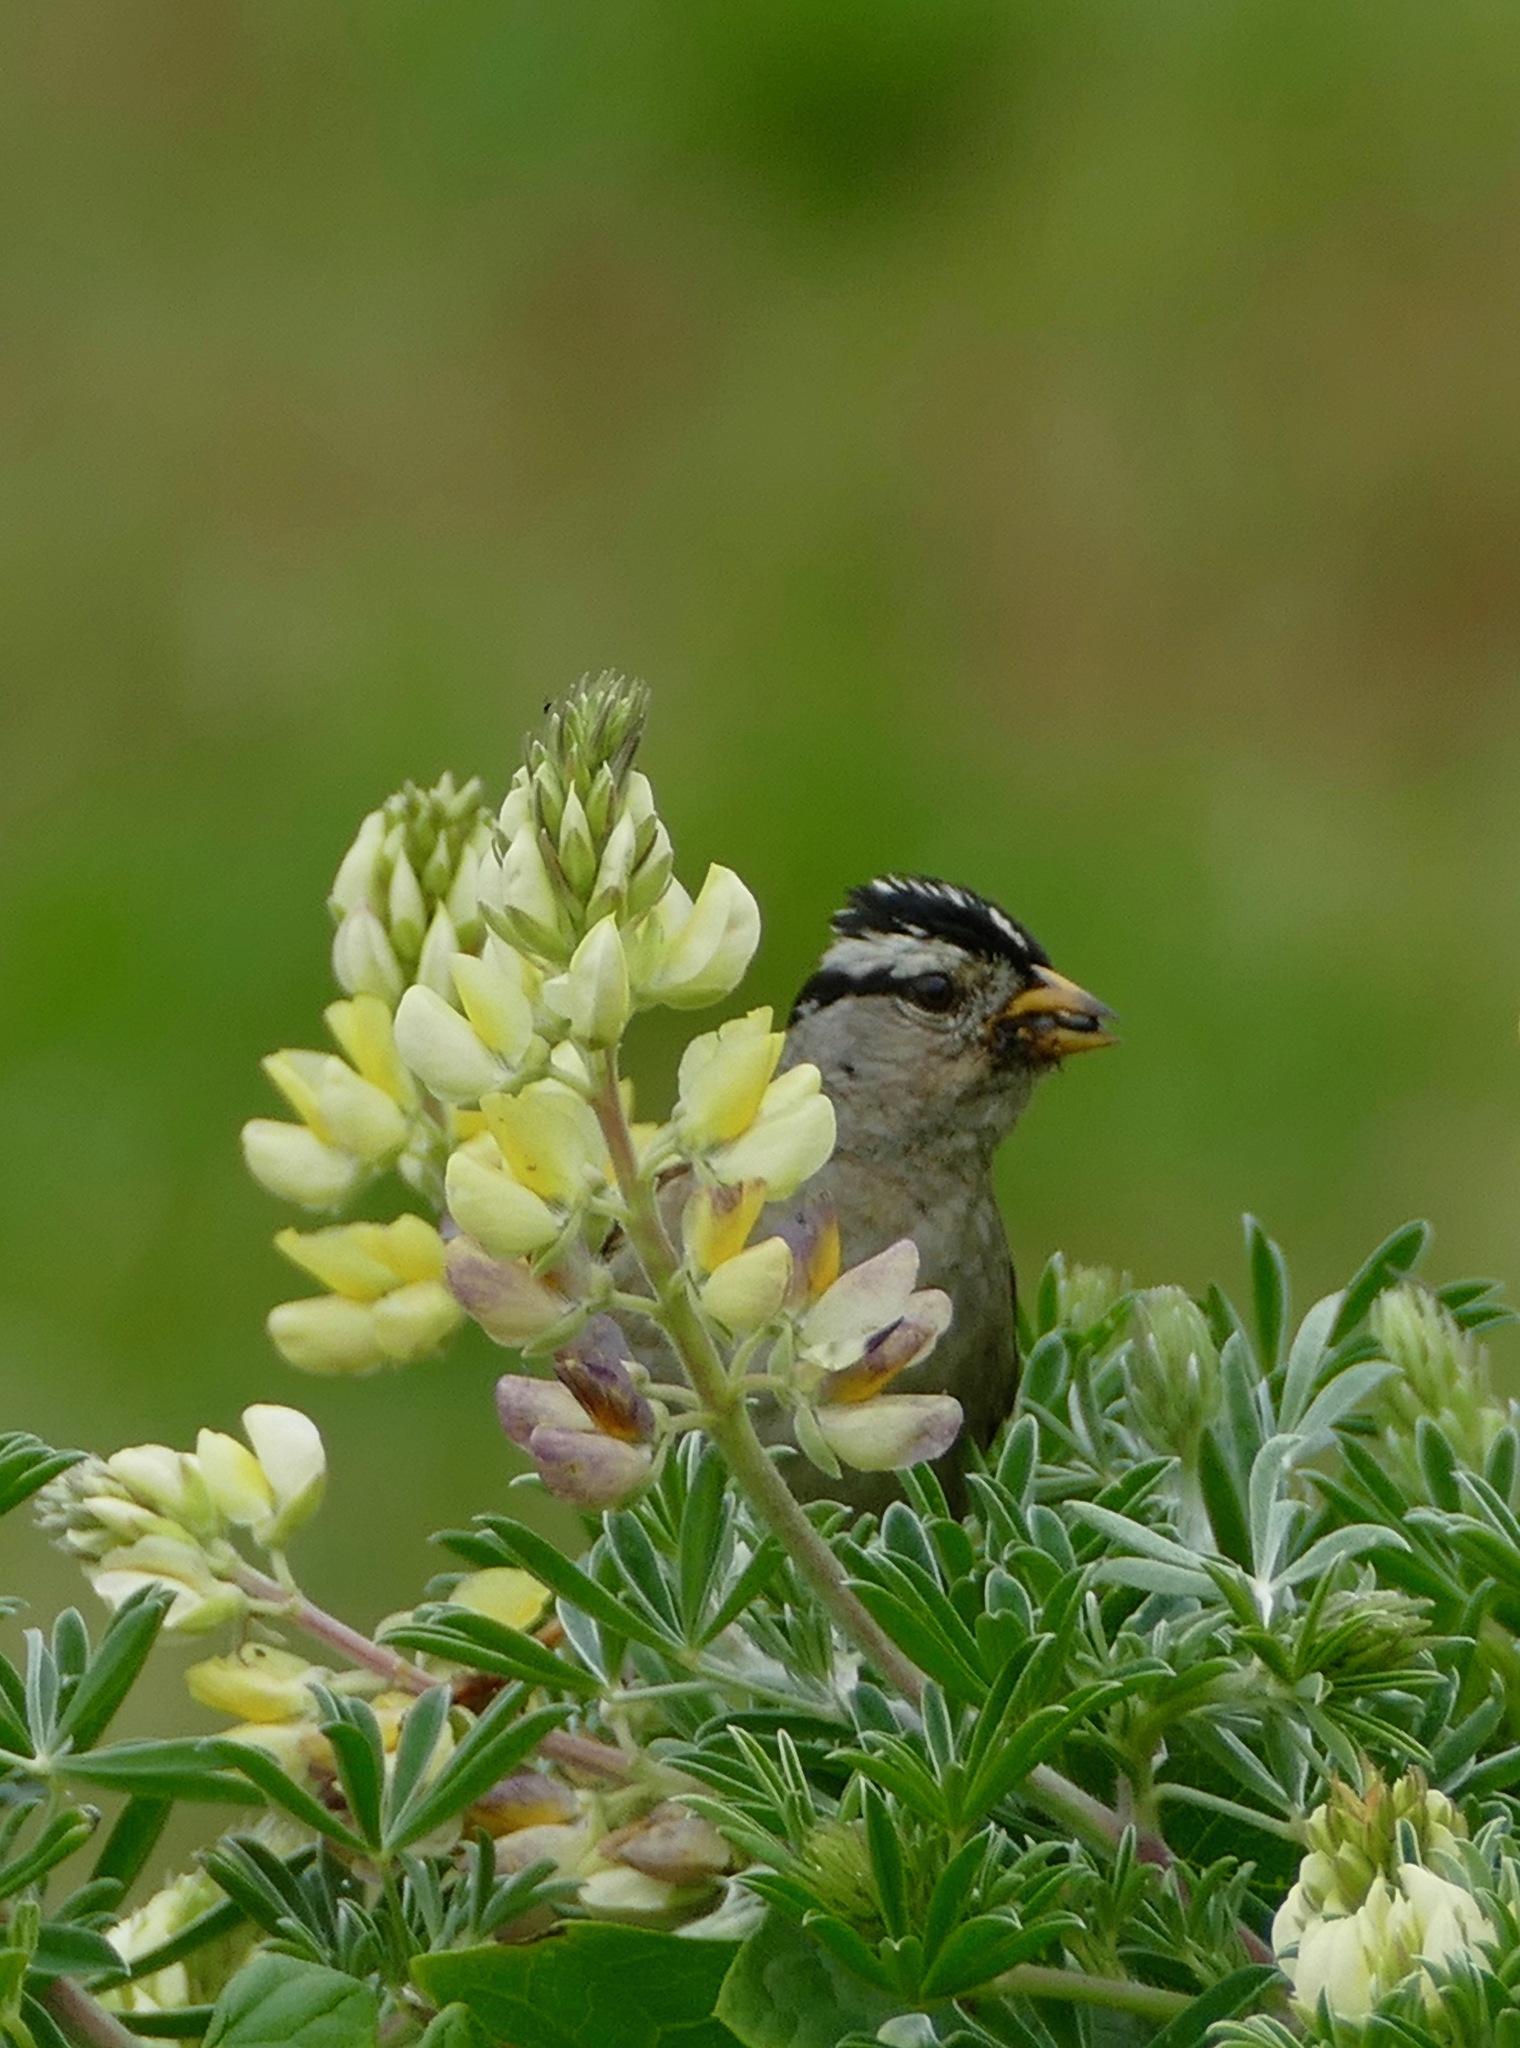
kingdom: Animalia
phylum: Chordata
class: Aves
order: Passeriformes
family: Passerellidae
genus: Zonotrichia
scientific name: Zonotrichia leucophrys
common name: White-crowned sparrow
